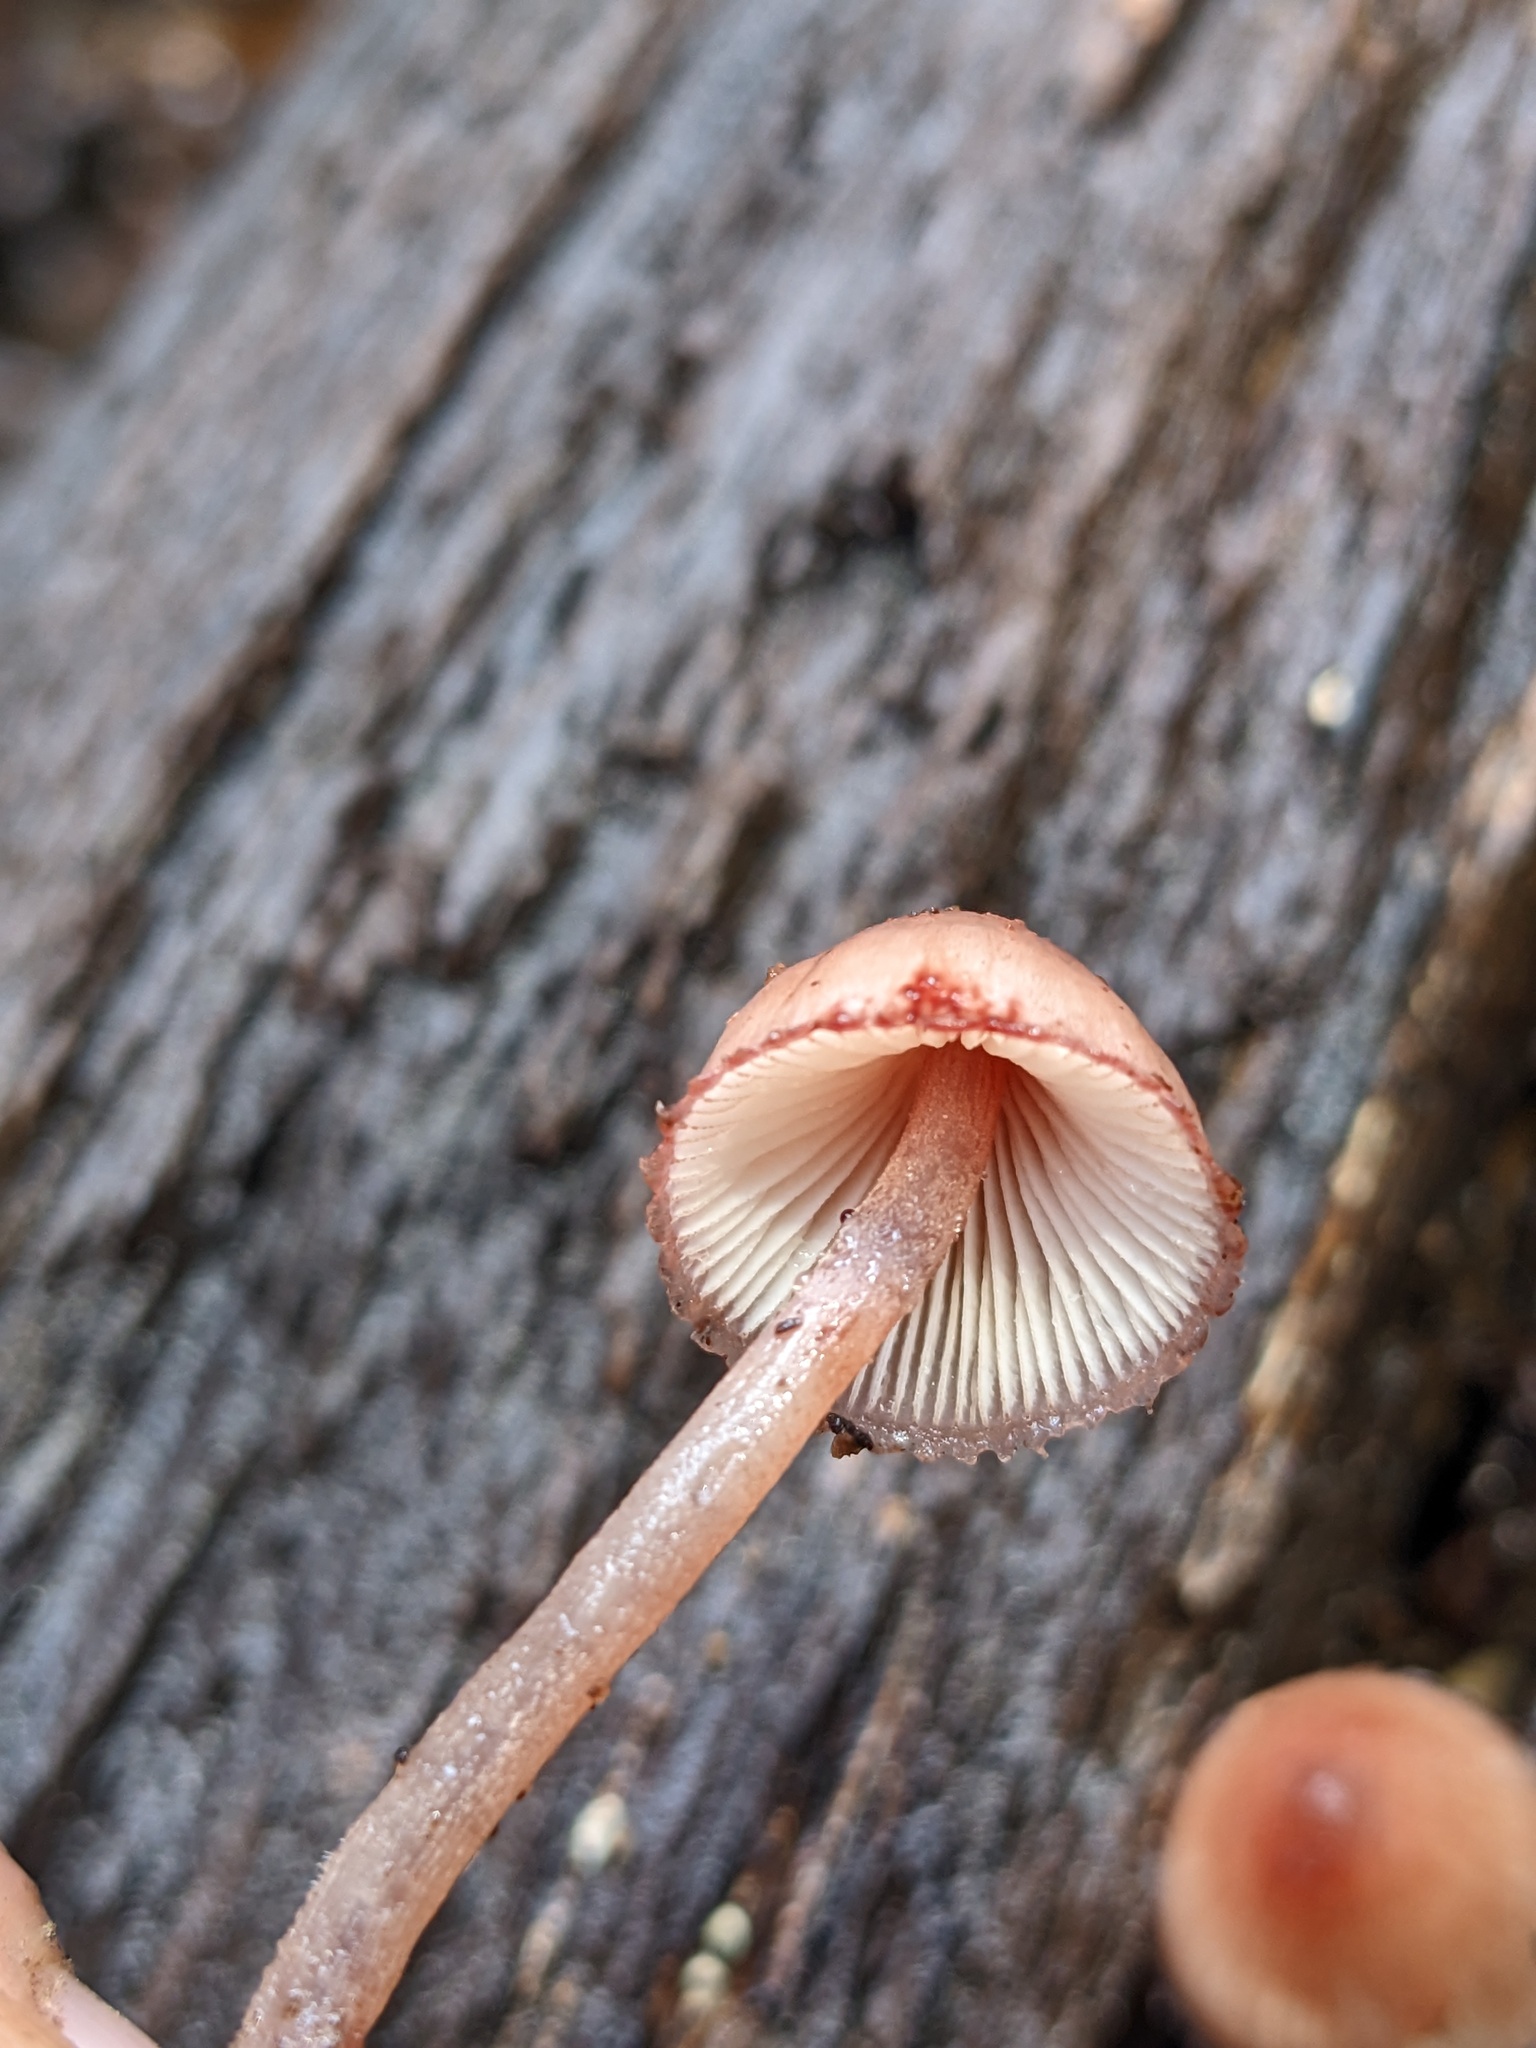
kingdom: Fungi
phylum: Basidiomycota
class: Agaricomycetes
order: Agaricales
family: Mycenaceae
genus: Mycena
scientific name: Mycena haematopus
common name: Burgundydrop bonnet
